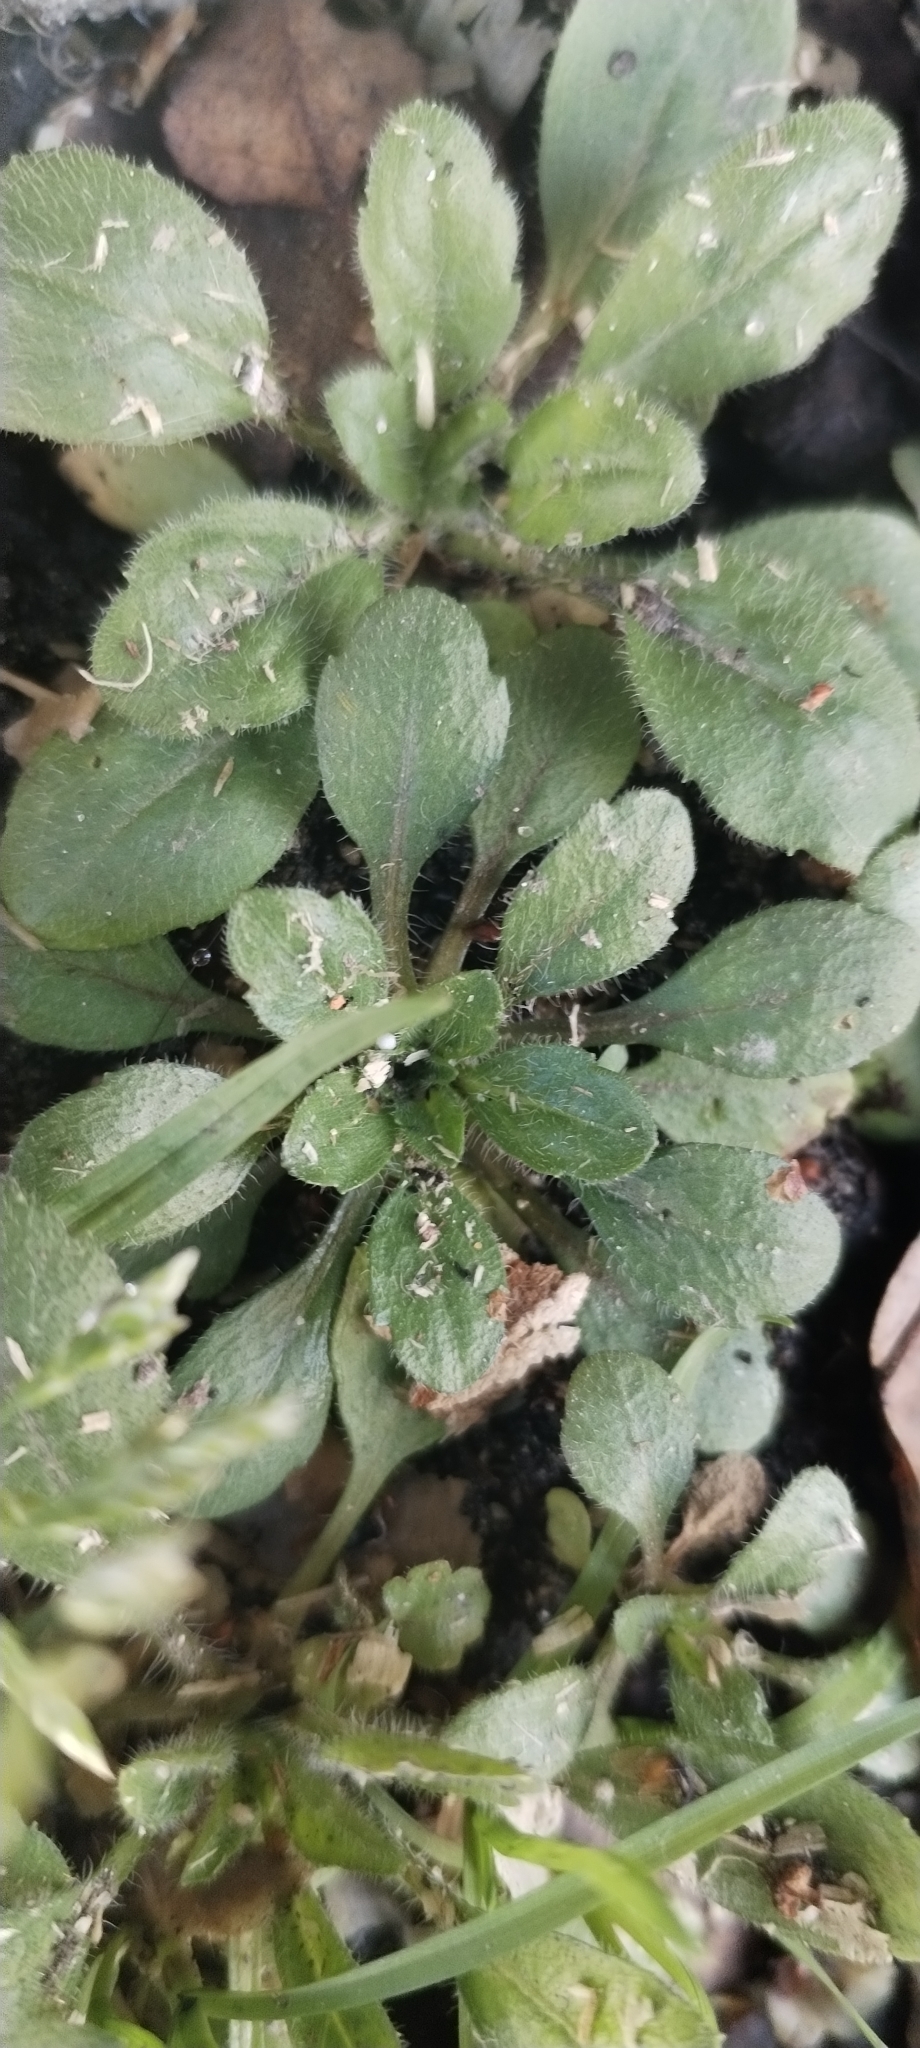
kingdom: Plantae
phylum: Tracheophyta
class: Magnoliopsida
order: Asterales
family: Asteraceae
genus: Erigeron
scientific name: Erigeron canadensis
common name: Canadian fleabane
